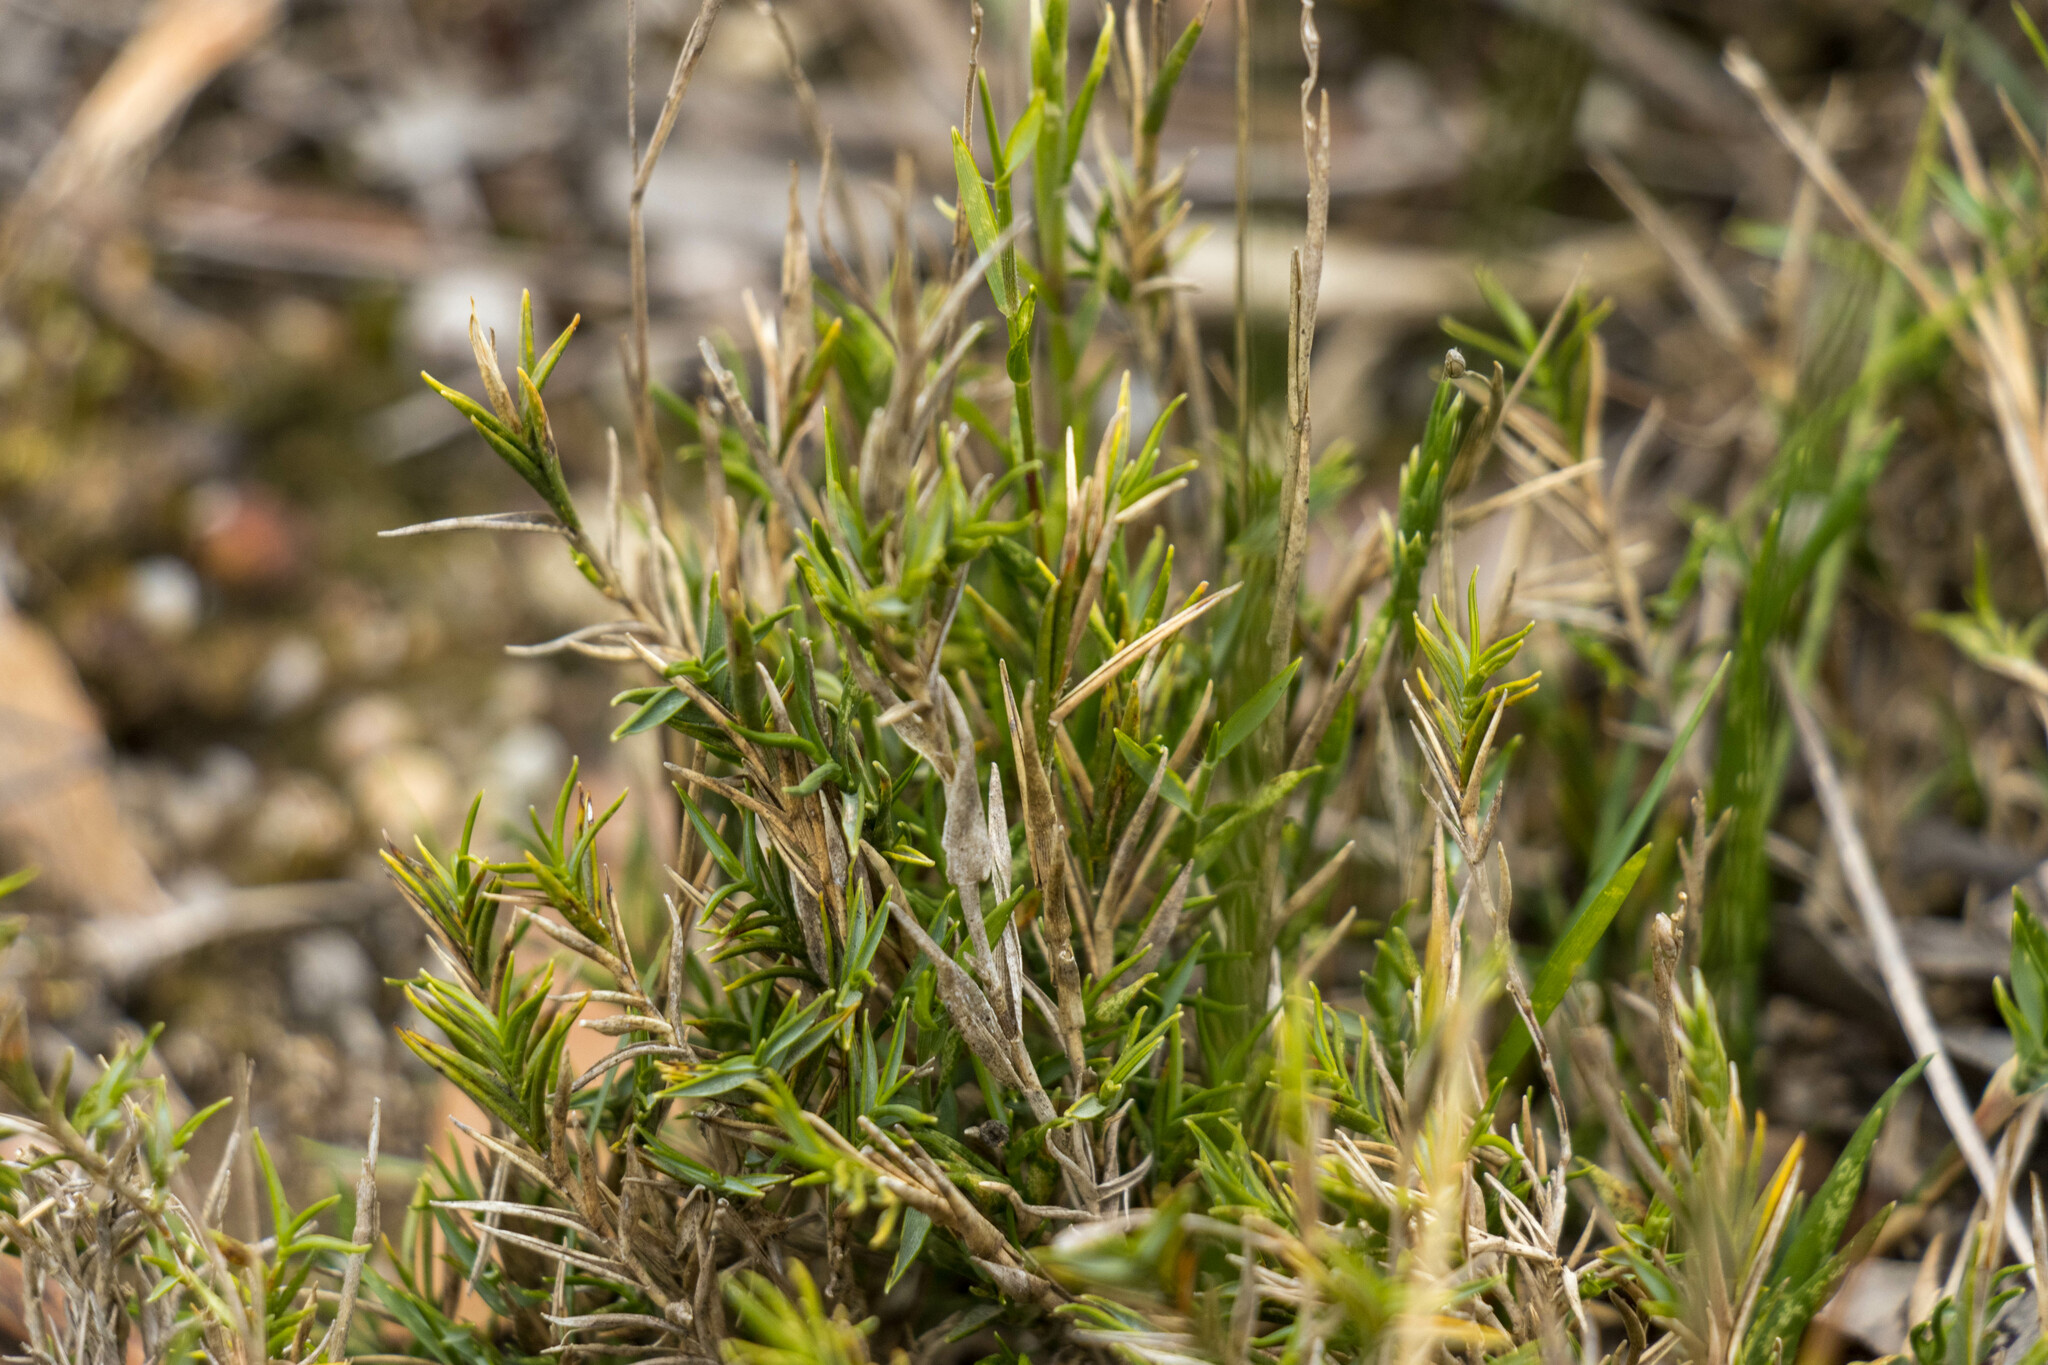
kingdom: Plantae
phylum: Tracheophyta
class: Liliopsida
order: Poales
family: Poaceae
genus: Distichlis
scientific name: Distichlis distichophylla
